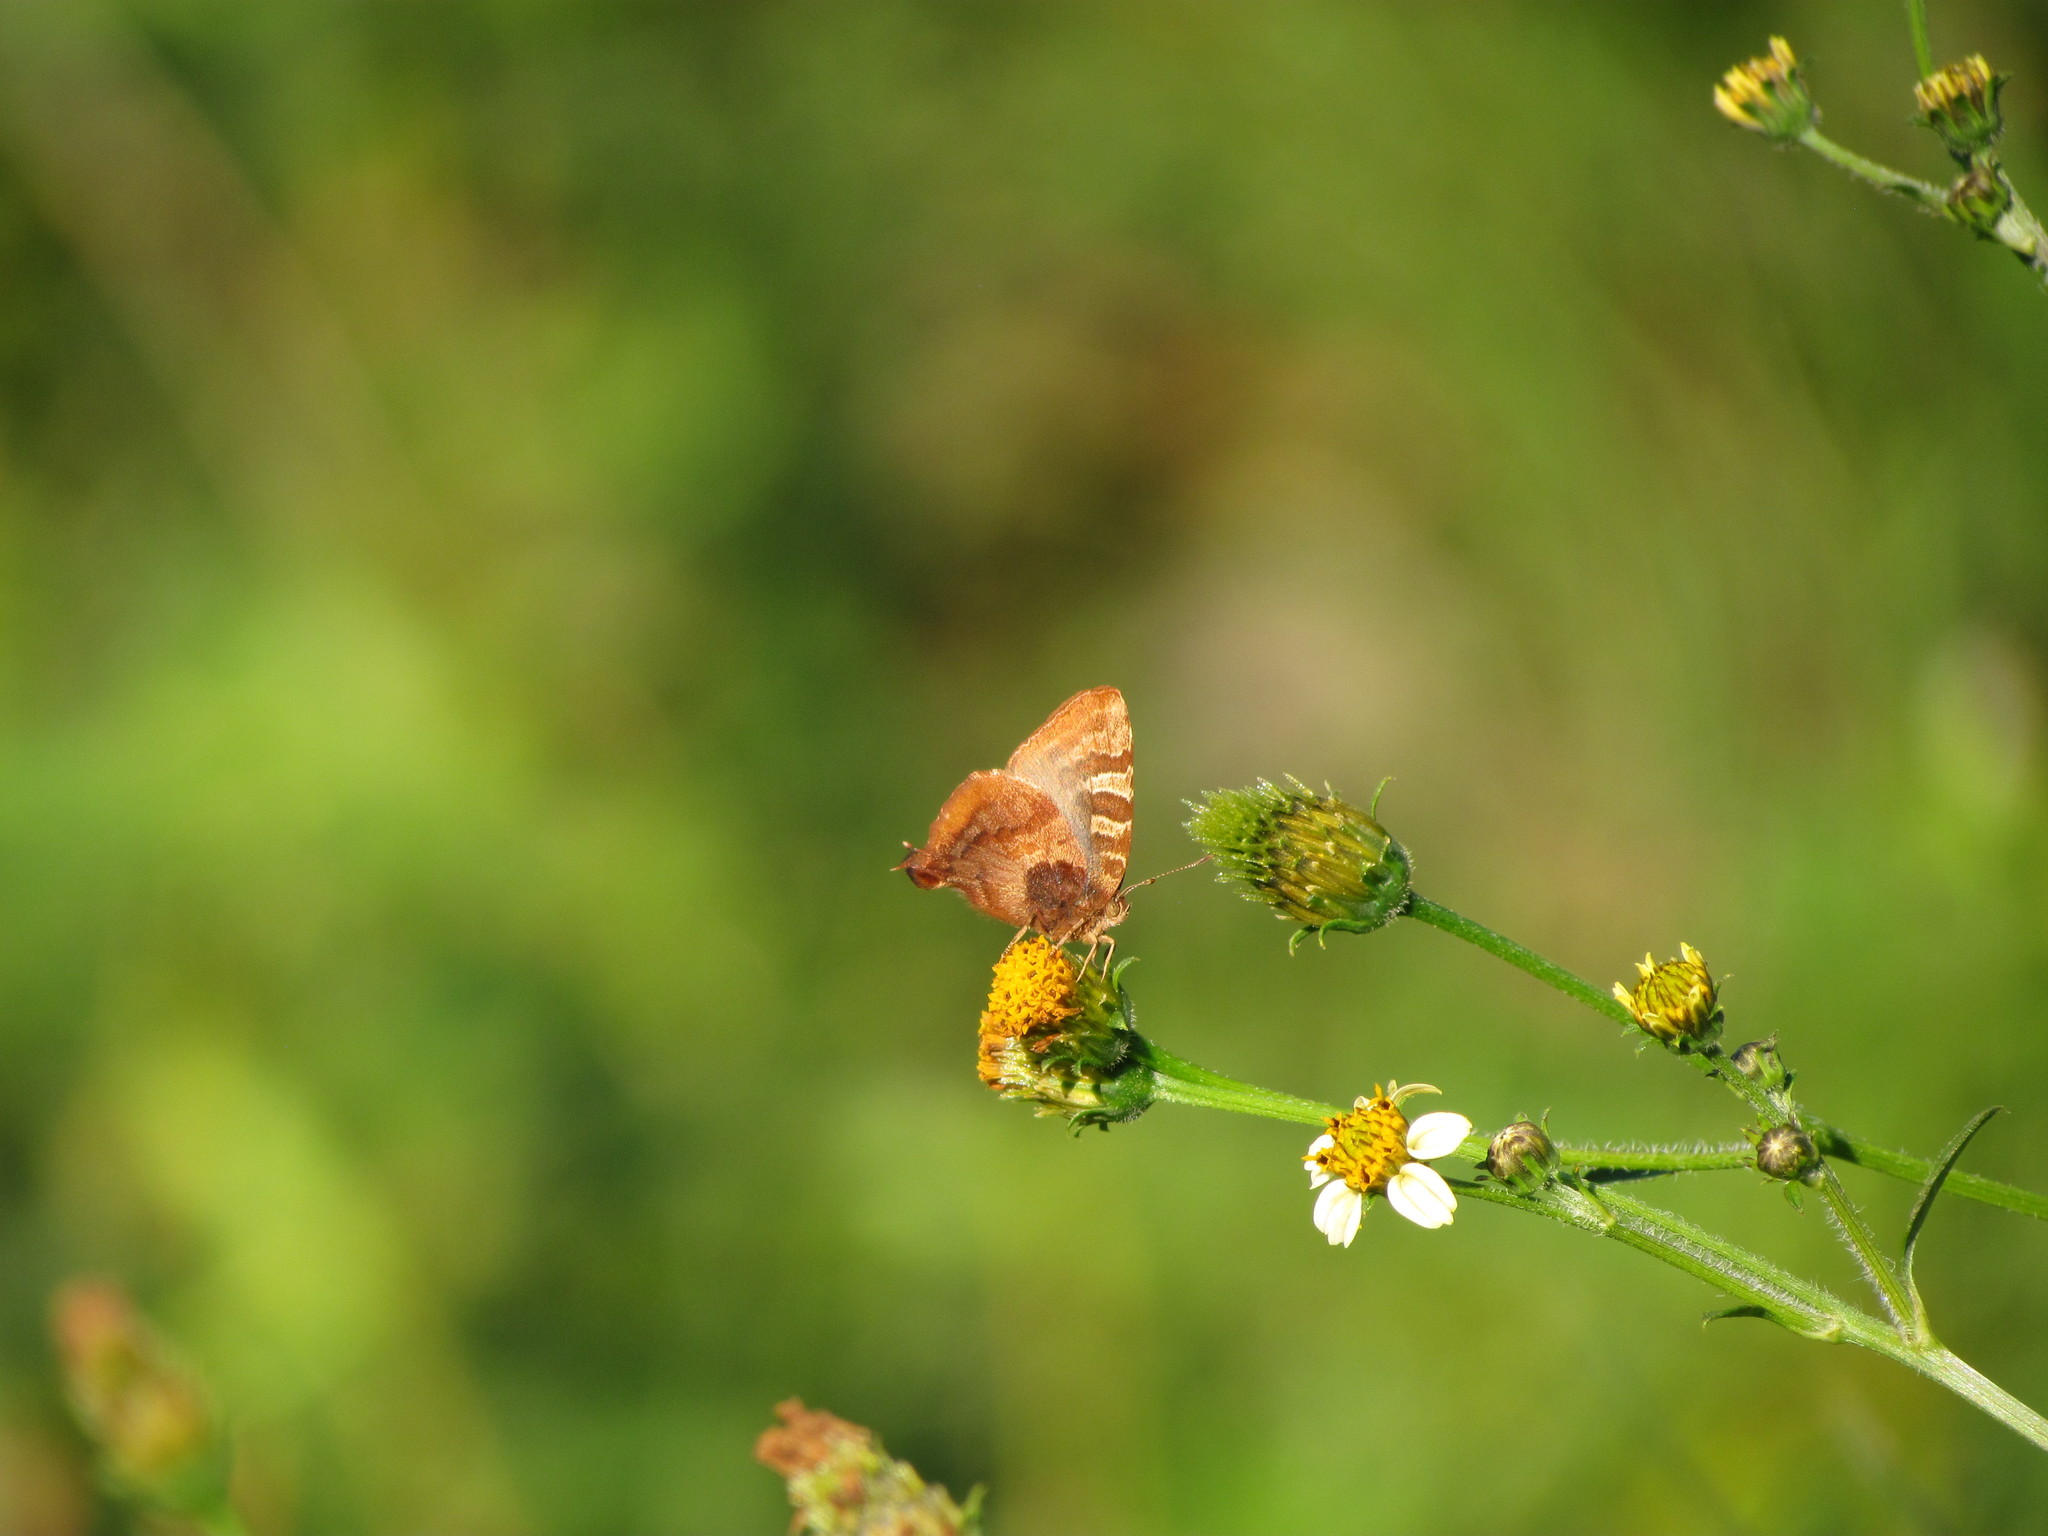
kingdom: Animalia
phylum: Arthropoda
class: Insecta
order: Lepidoptera
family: Lycaenidae
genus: Arawacus
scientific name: Arawacus ellida
